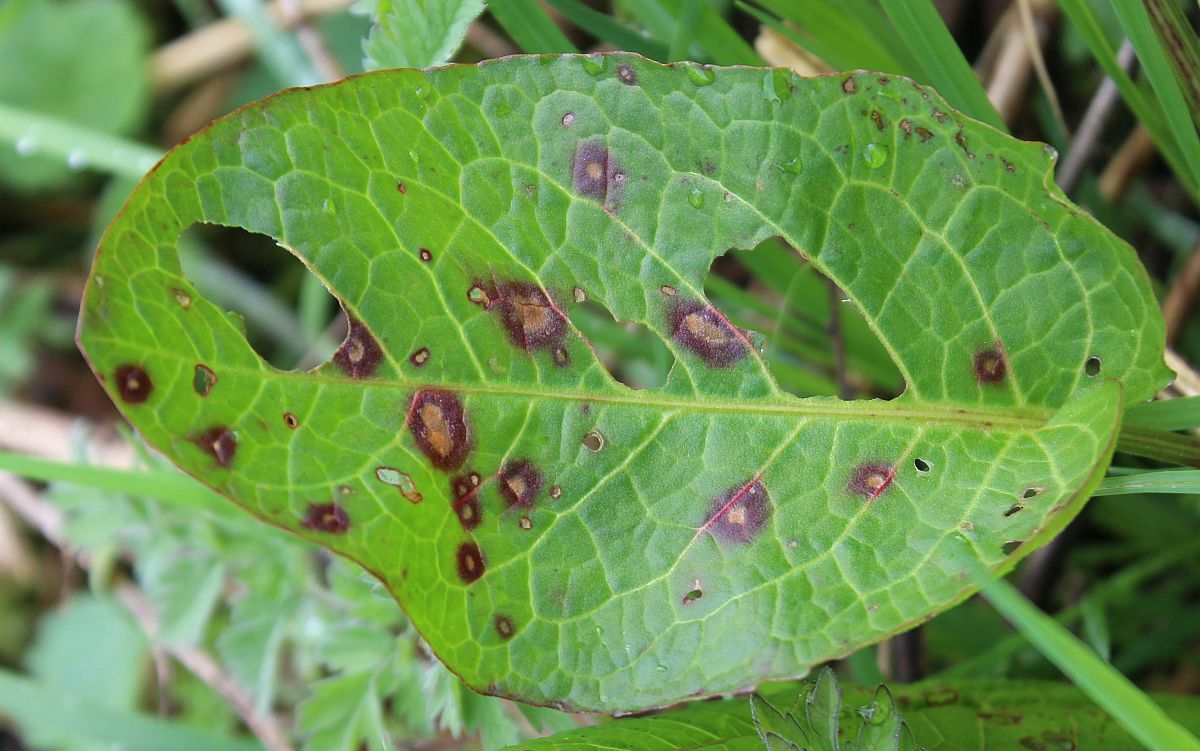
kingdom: Fungi
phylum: Ascomycota
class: Dothideomycetes
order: Mycosphaerellales
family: Mycosphaerellaceae
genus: Ramularia
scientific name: Ramularia rubella
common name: Red dock spot
